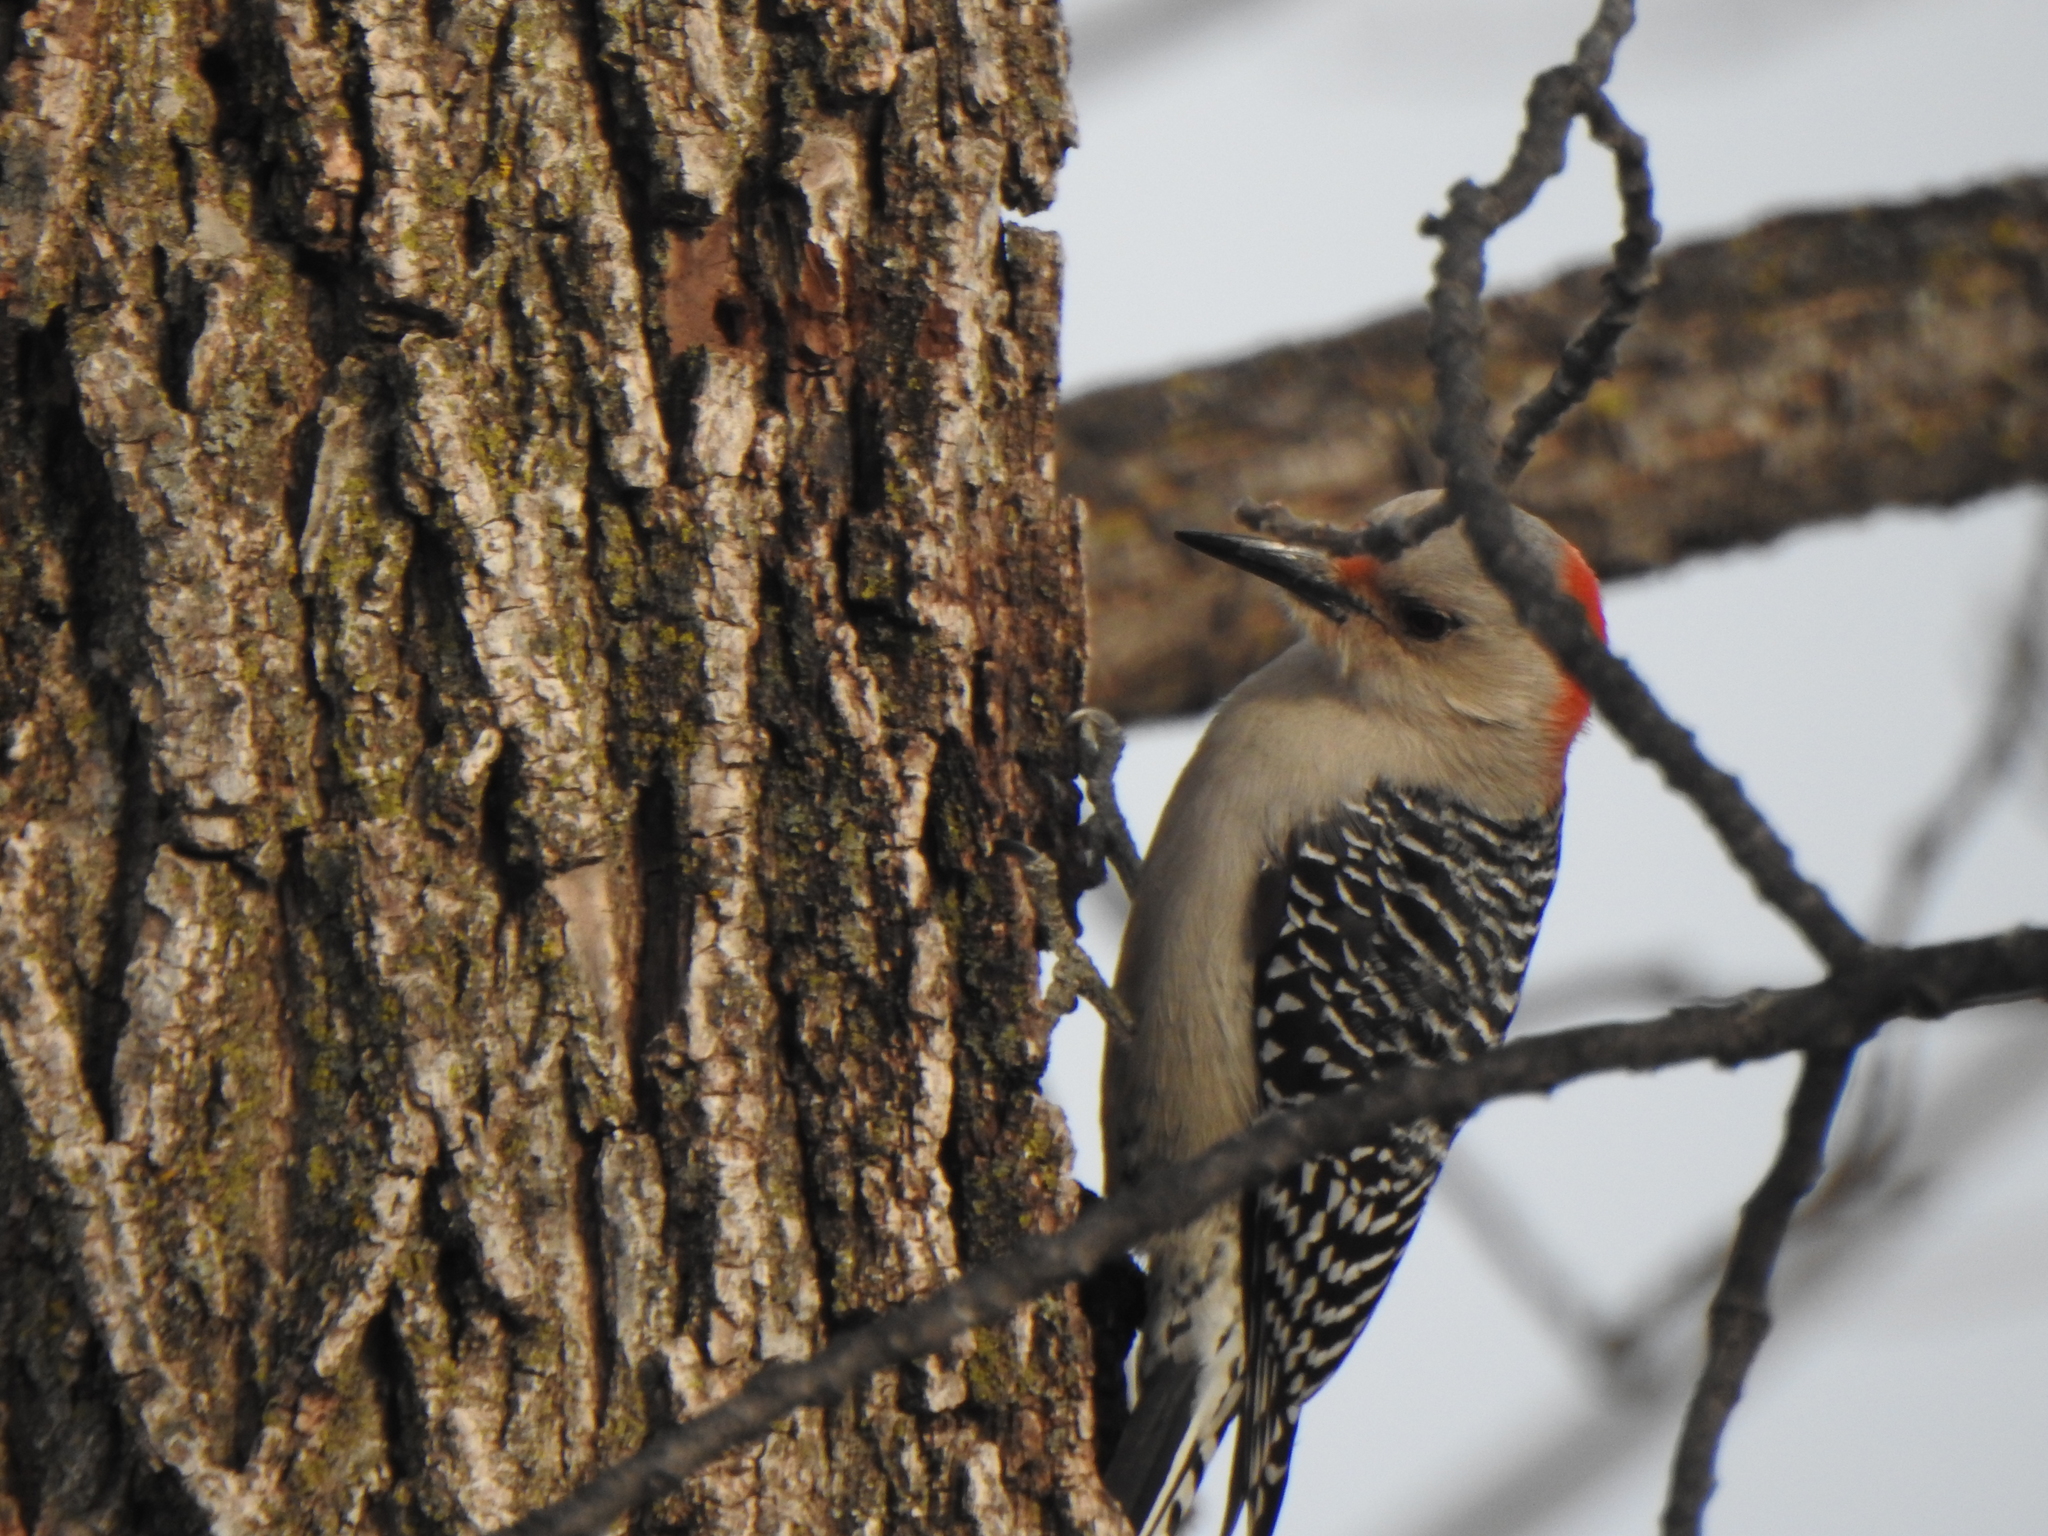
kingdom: Animalia
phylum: Chordata
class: Aves
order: Piciformes
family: Picidae
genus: Melanerpes
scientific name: Melanerpes carolinus
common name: Red-bellied woodpecker
